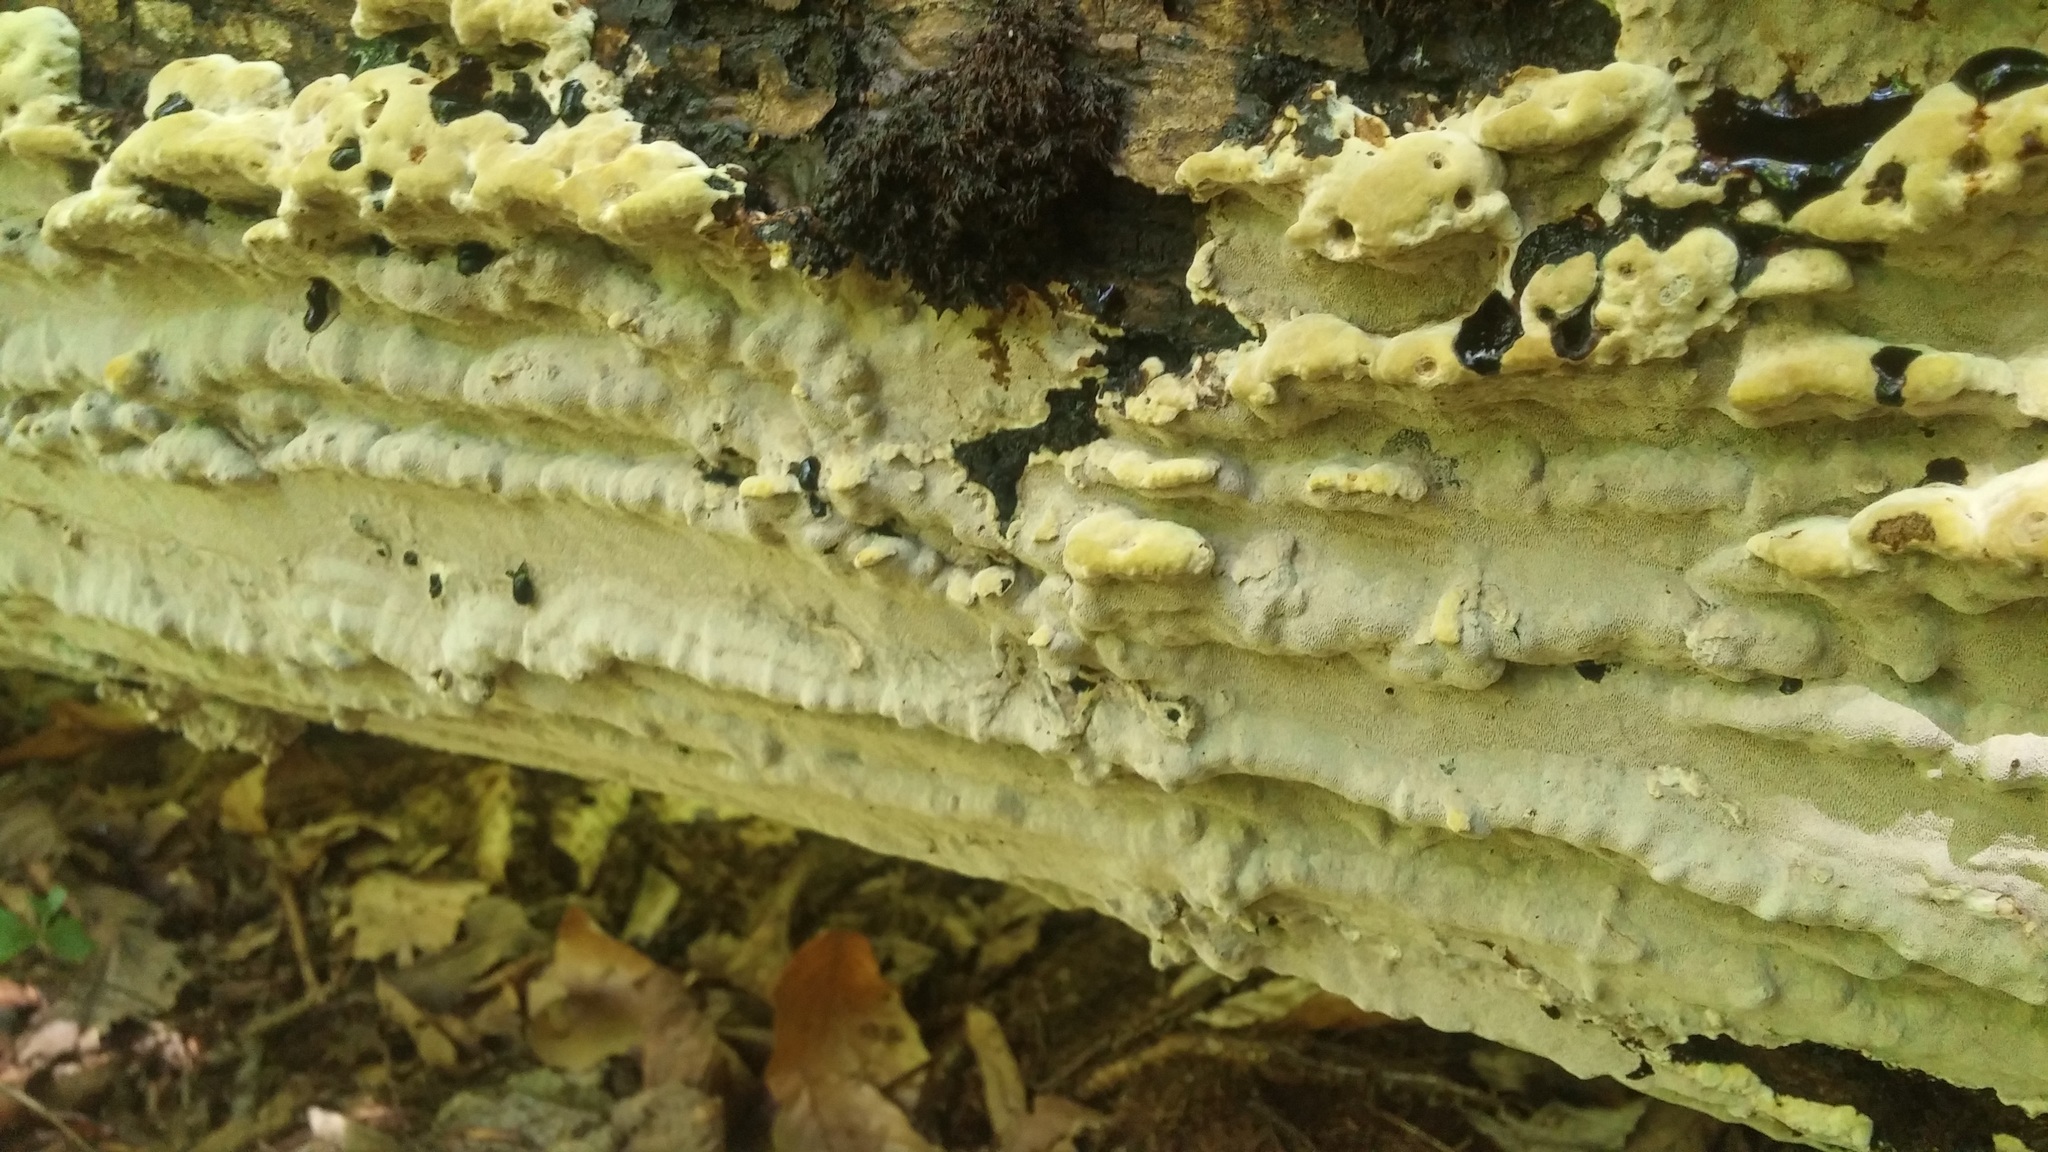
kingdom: Fungi
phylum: Basidiomycota
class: Agaricomycetes
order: Hymenochaetales
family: Hymenochaetaceae
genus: Rigidonotus
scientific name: Rigidonotus glomeratus
